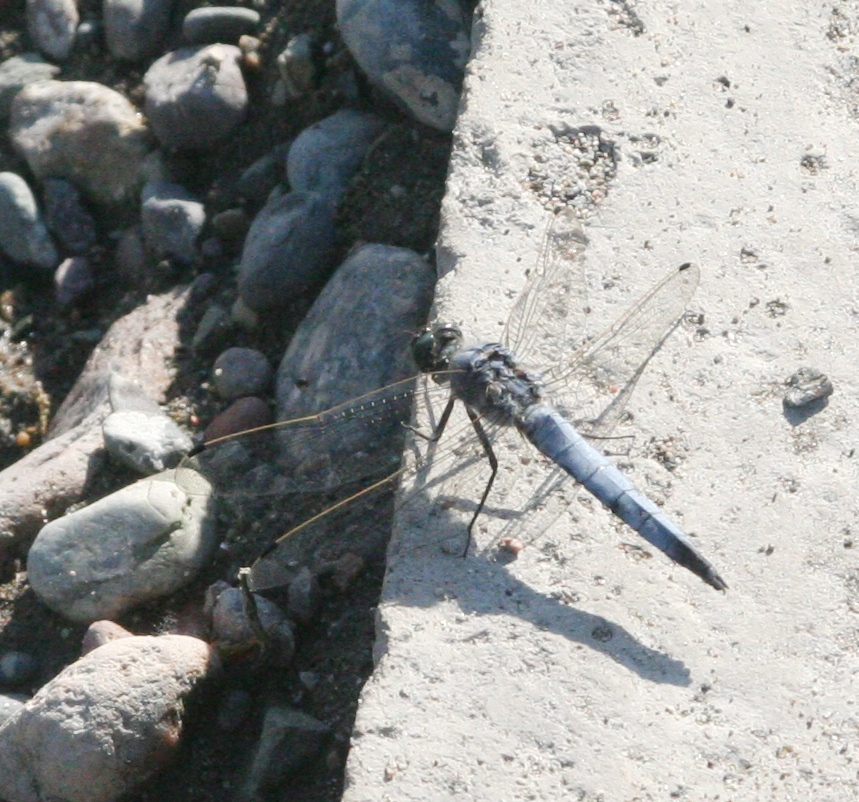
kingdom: Animalia
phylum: Arthropoda
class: Insecta
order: Odonata
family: Libellulidae
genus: Orthetrum
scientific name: Orthetrum cancellatum
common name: Black-tailed skimmer
